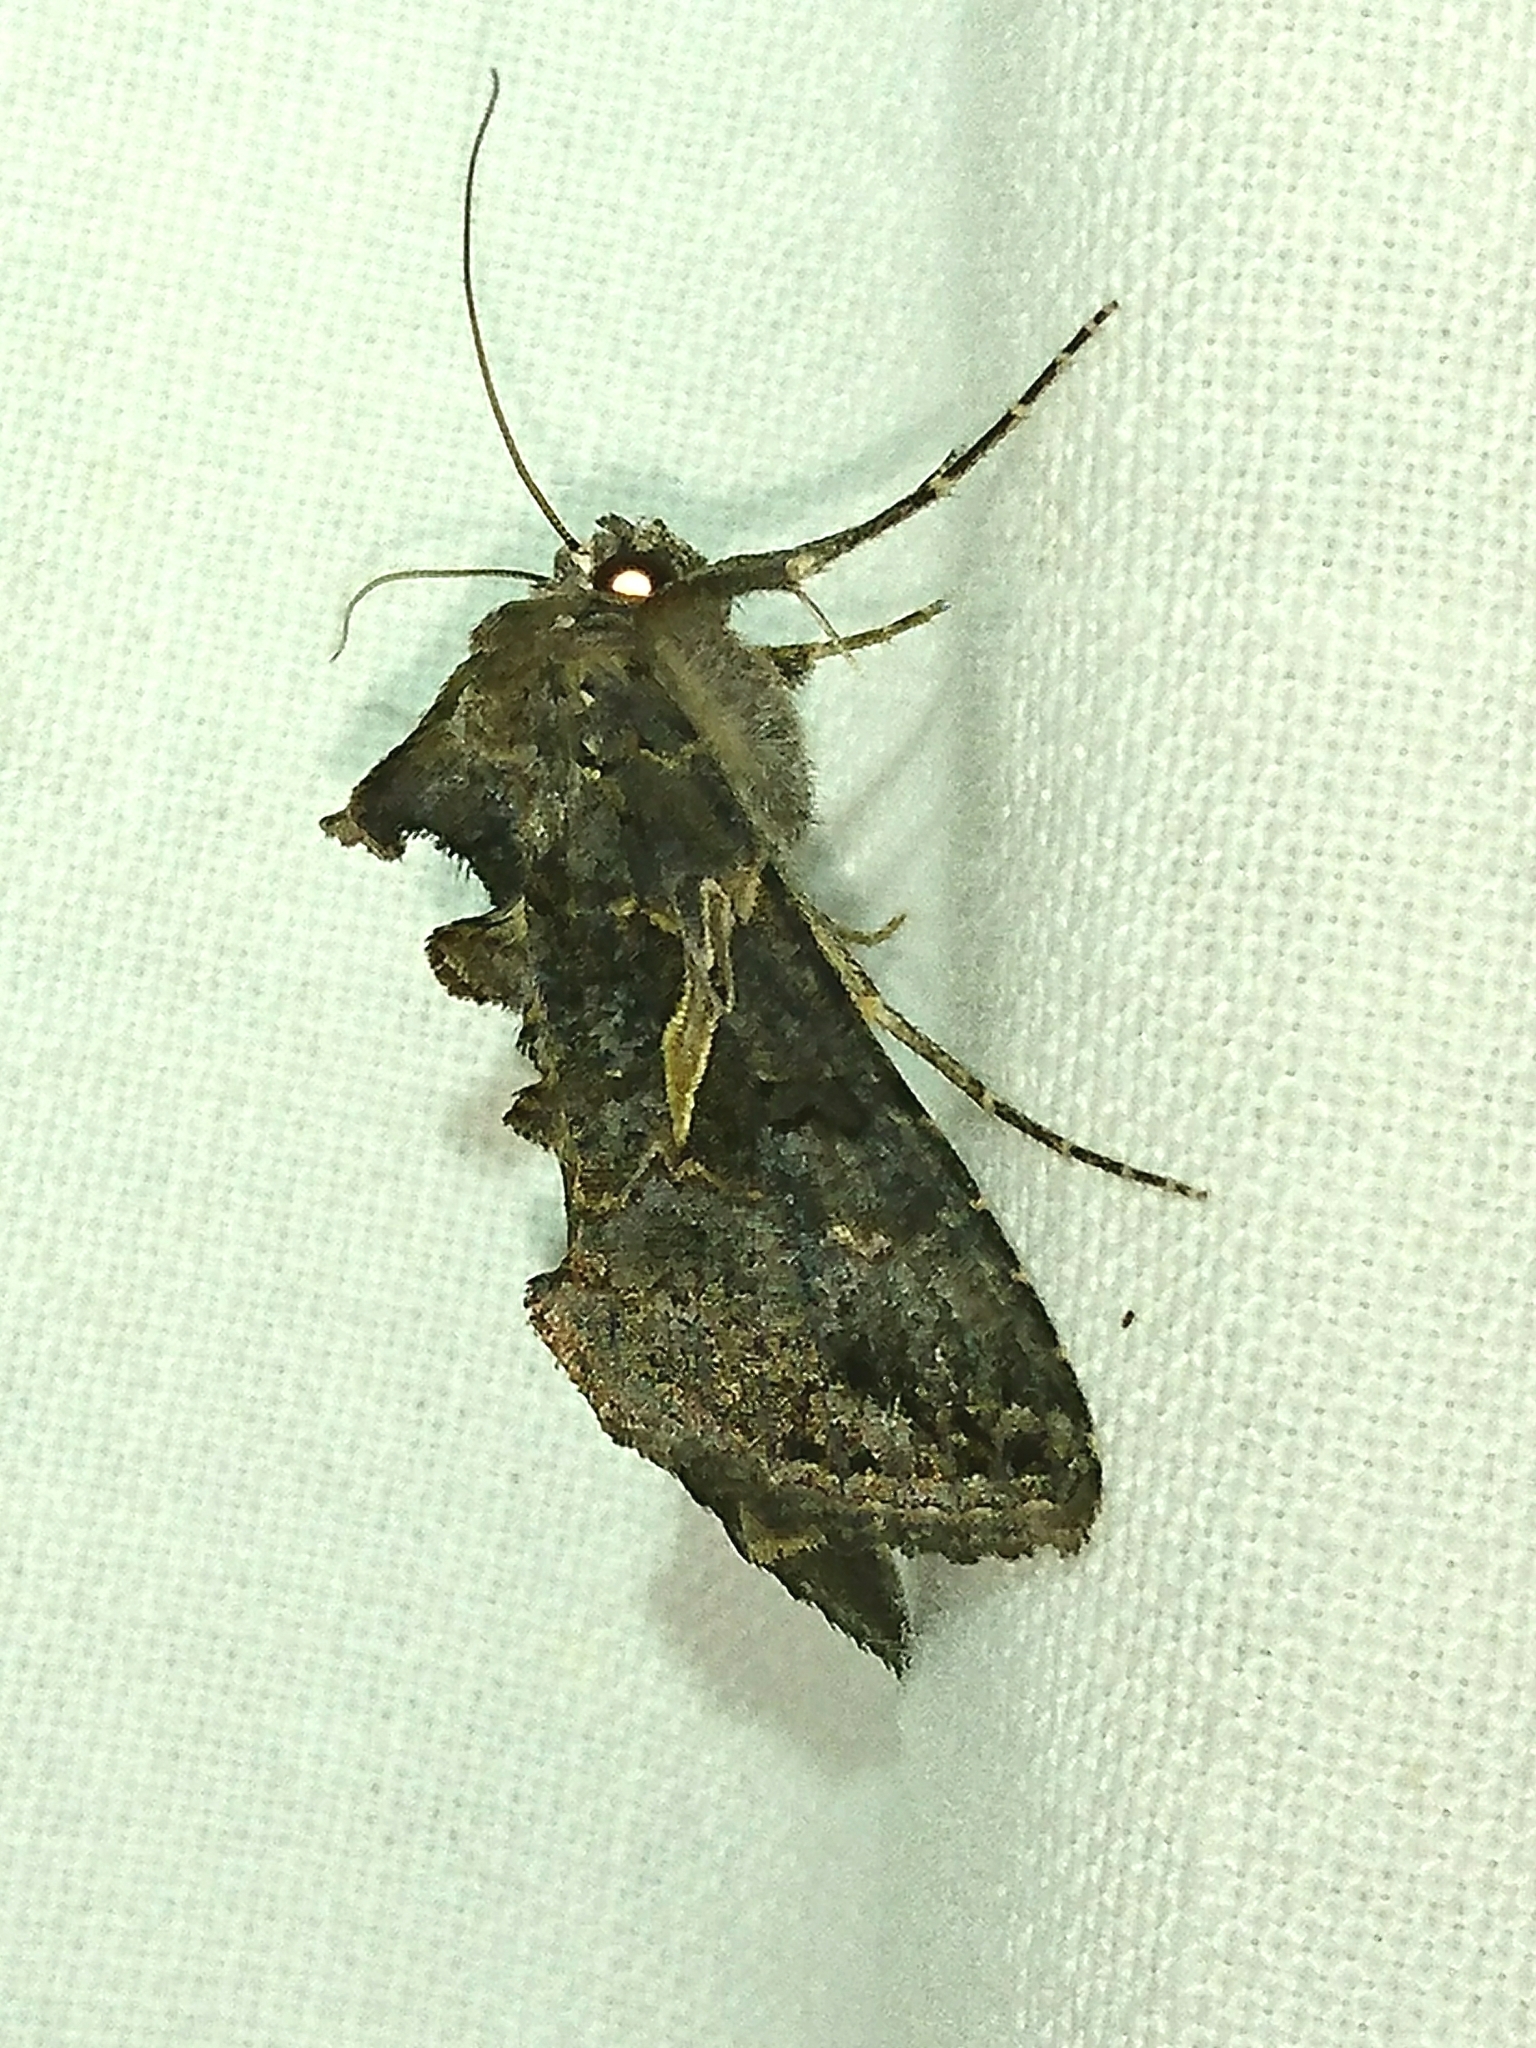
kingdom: Animalia
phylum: Arthropoda
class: Insecta
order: Lepidoptera
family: Noctuidae
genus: Ctenoplusia
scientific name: Ctenoplusia oxygramma
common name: Sharp-stigma looper moth
